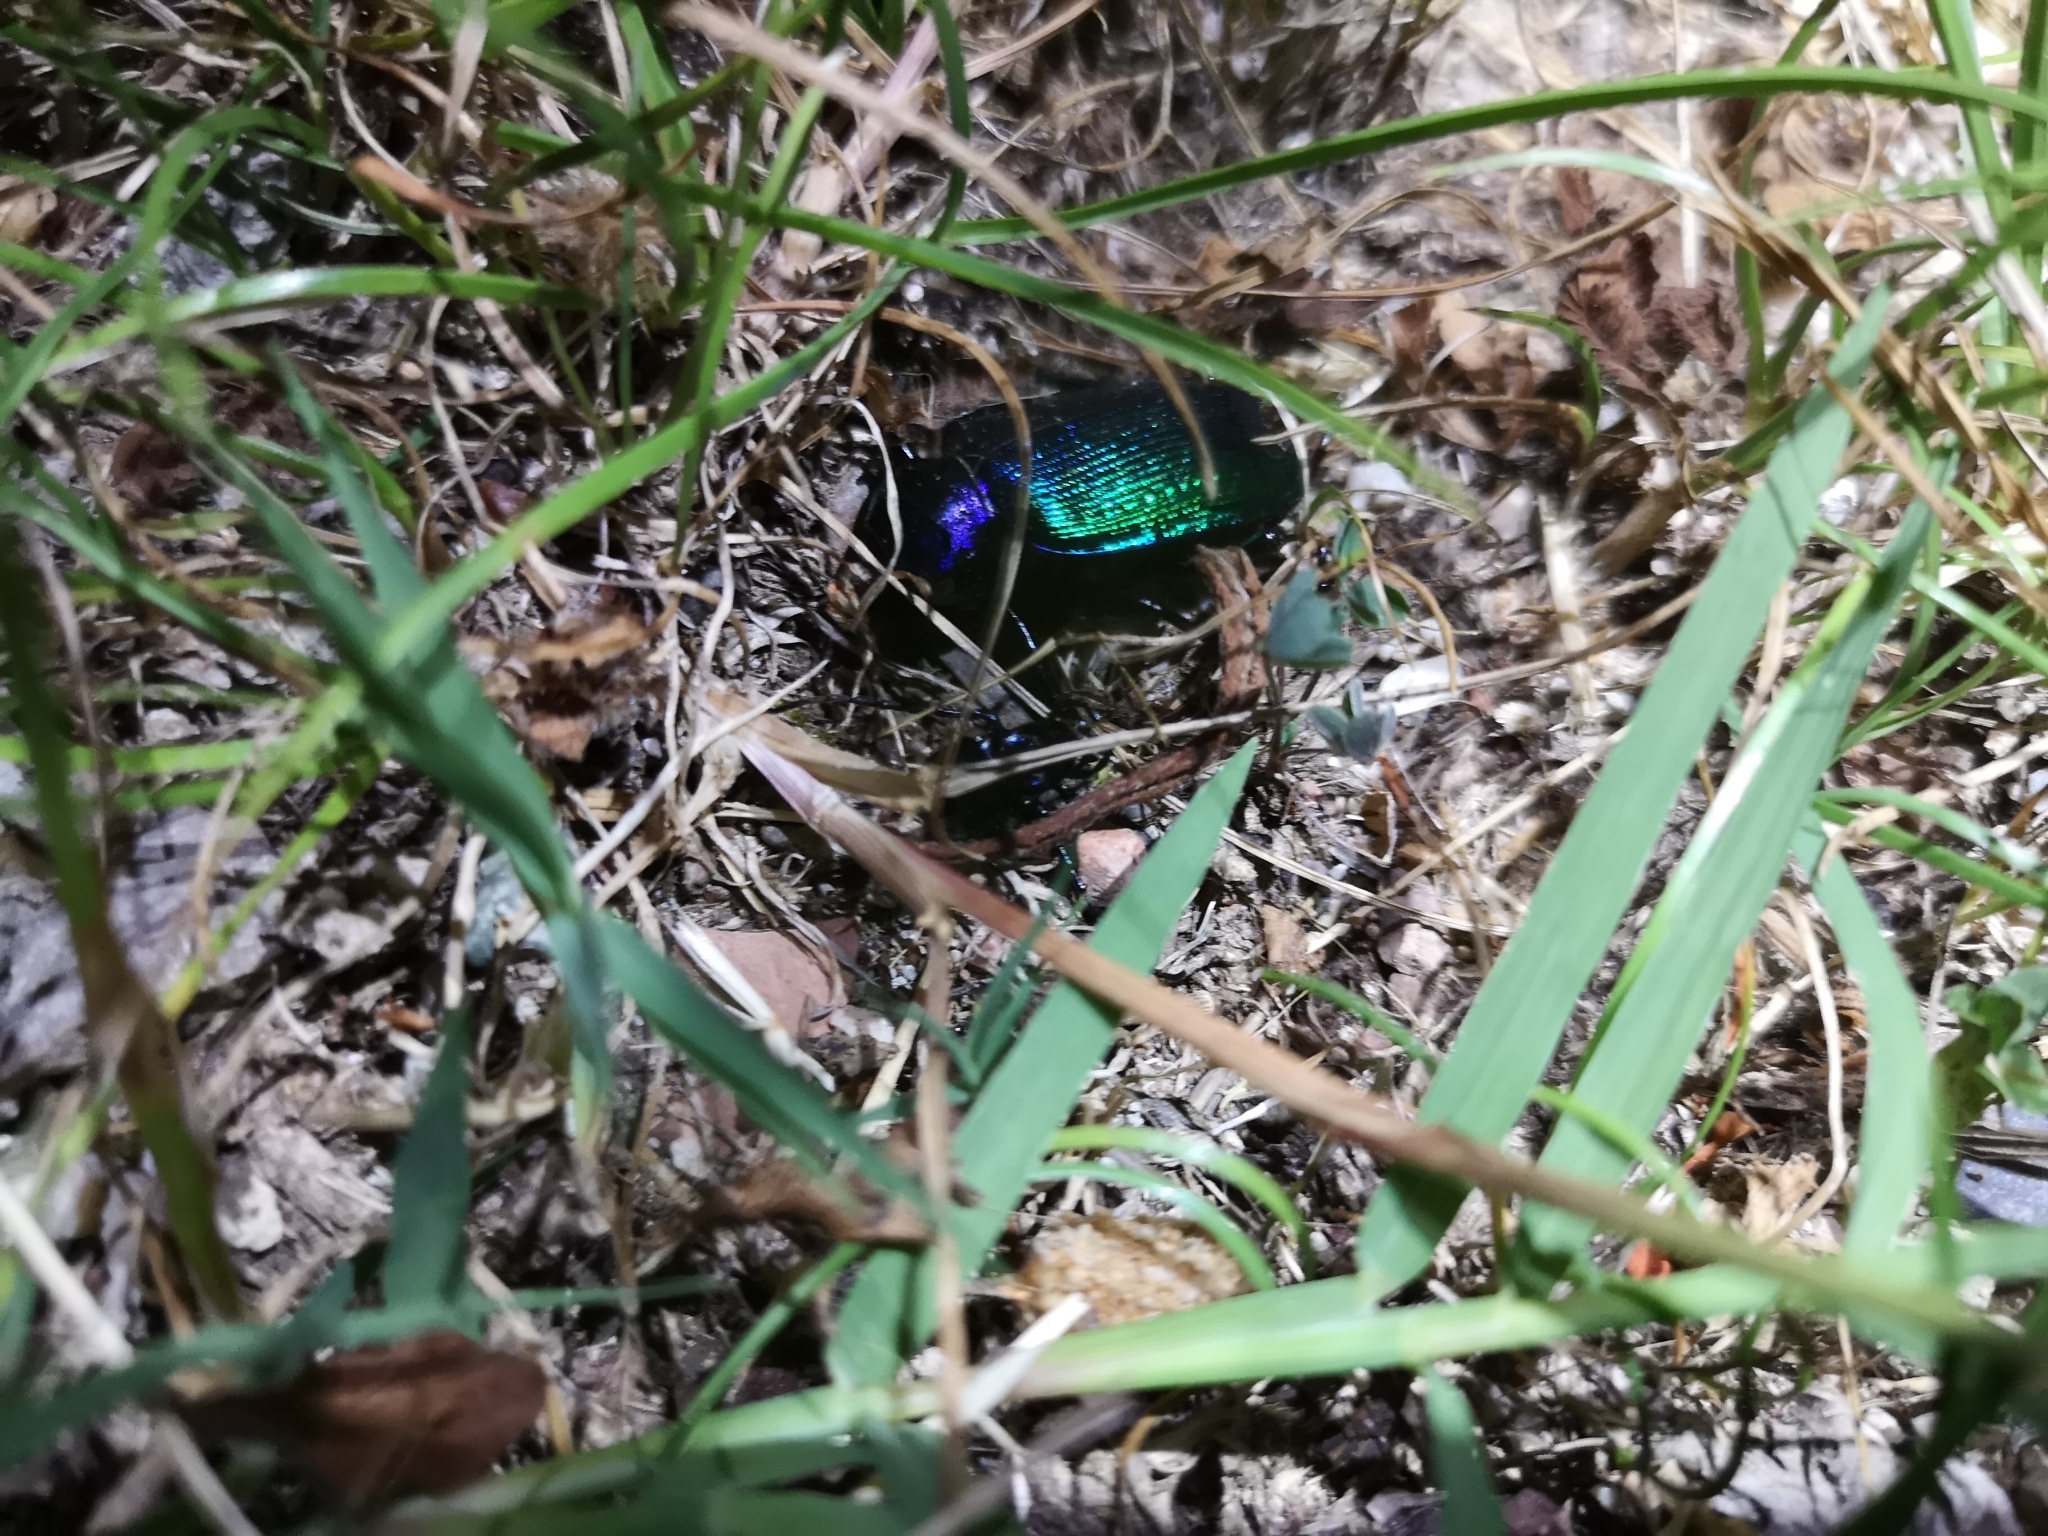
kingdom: Animalia
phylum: Arthropoda
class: Insecta
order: Coleoptera
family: Carabidae
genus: Calosoma
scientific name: Calosoma sycophanta
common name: Forest caterpillar hunter
